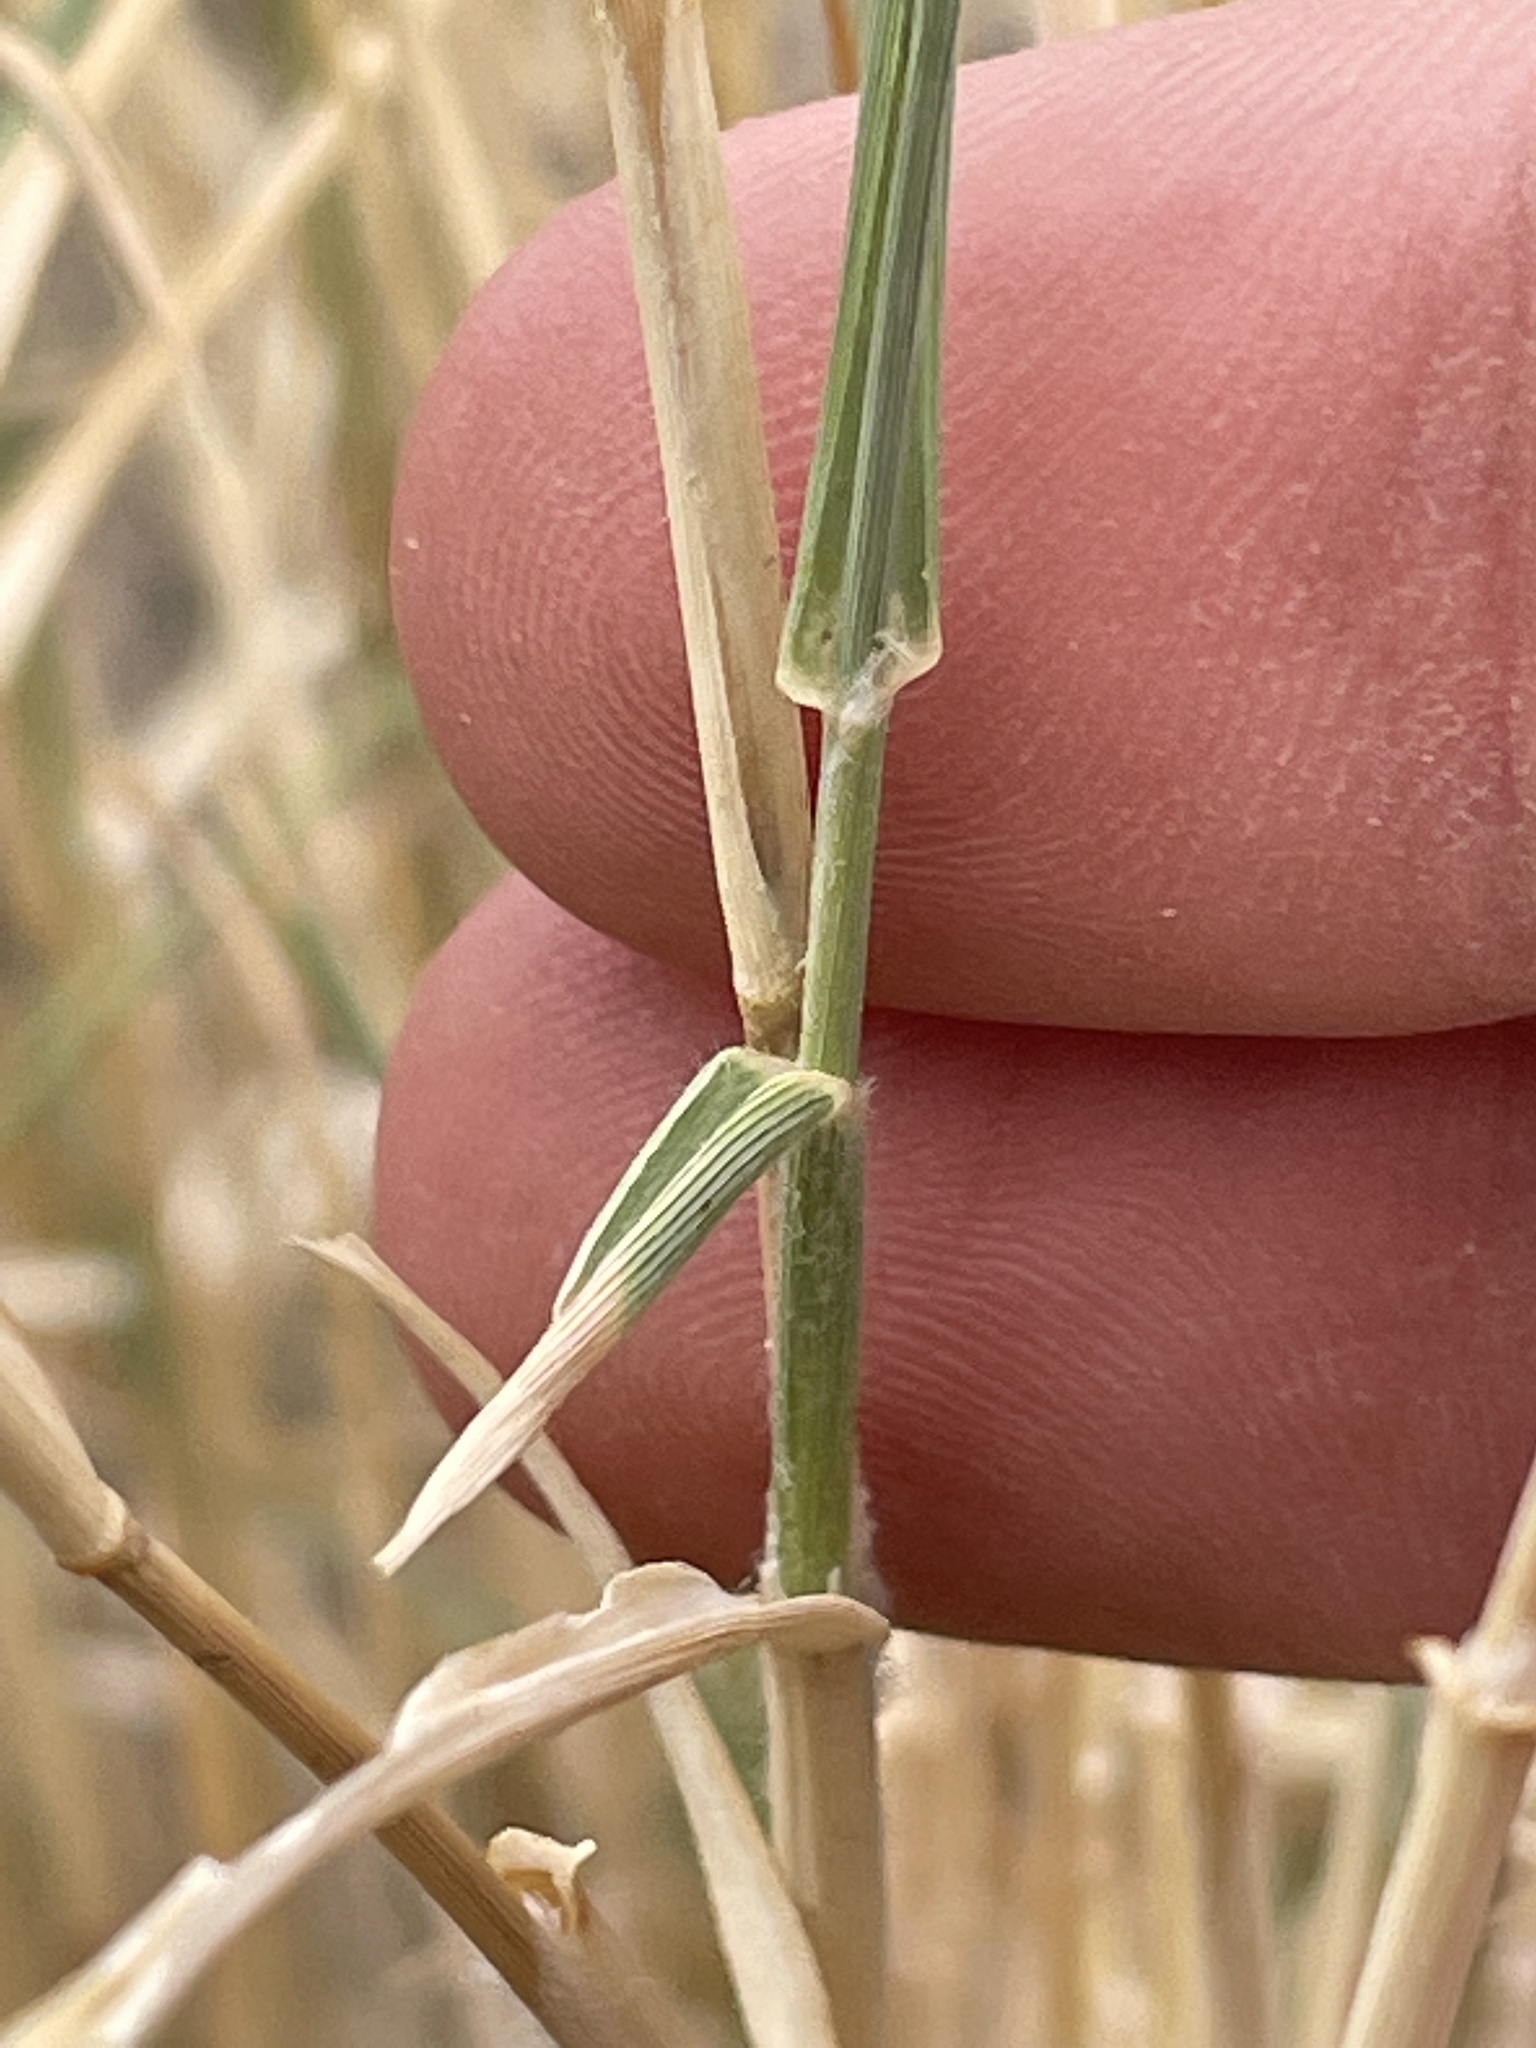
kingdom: Plantae
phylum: Tracheophyta
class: Liliopsida
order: Poales
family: Poaceae
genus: Hilaria
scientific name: Hilaria rigida
